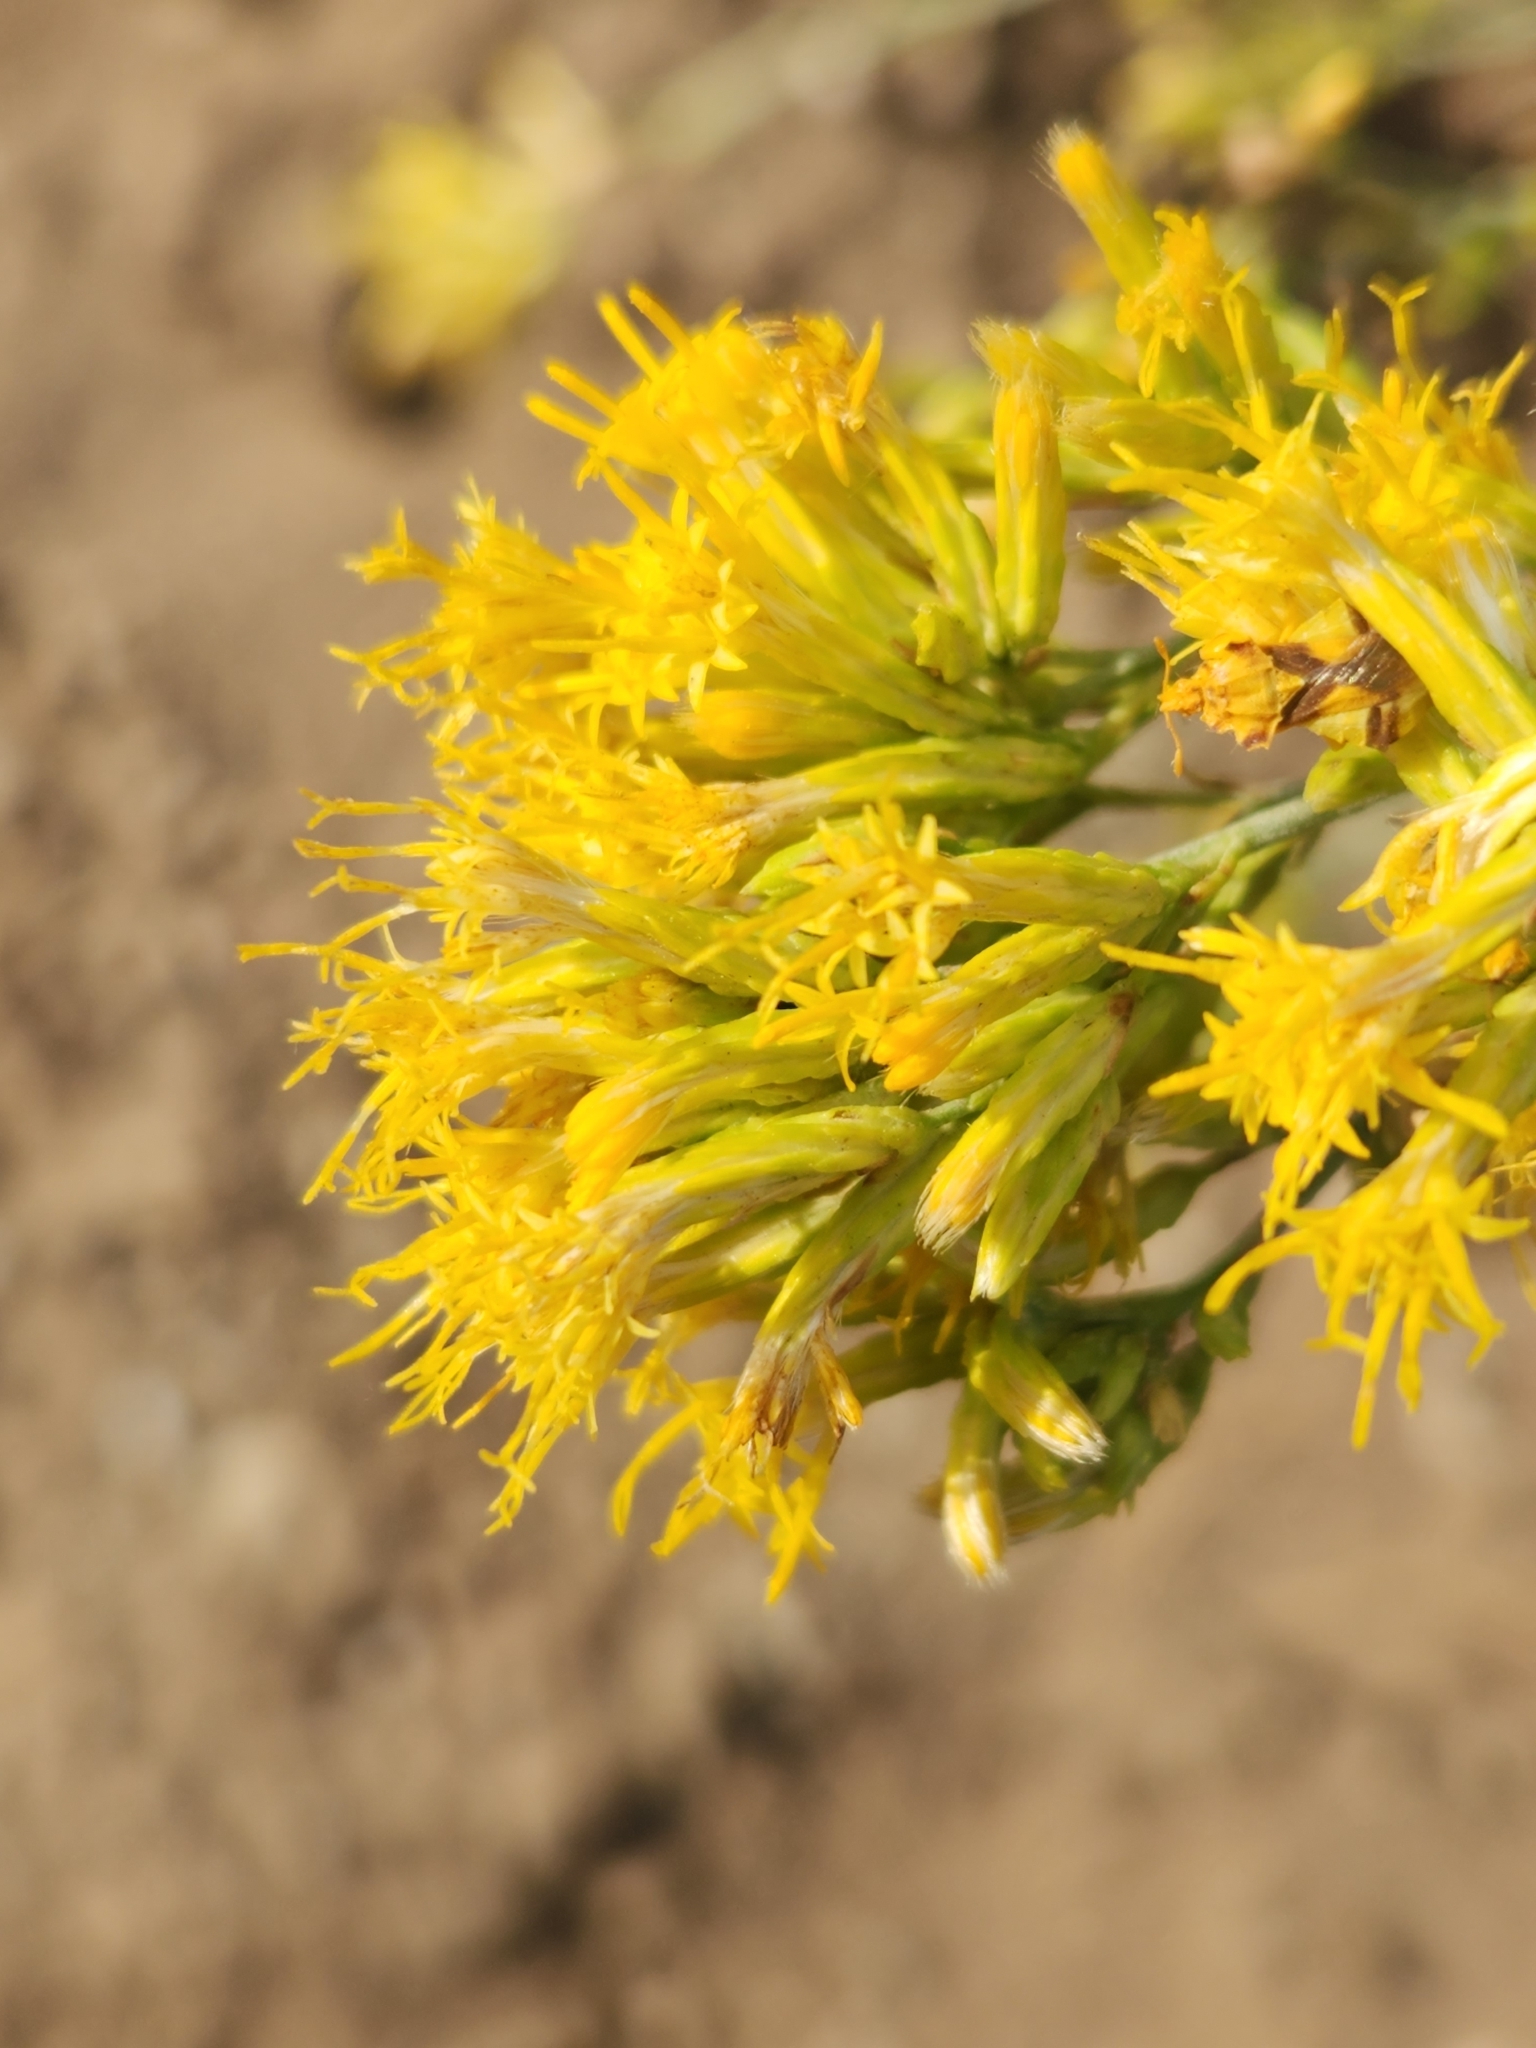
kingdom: Plantae
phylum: Tracheophyta
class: Magnoliopsida
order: Asterales
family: Asteraceae
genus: Ericameria
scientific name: Ericameria nauseosa
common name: Rubber rabbitbrush
